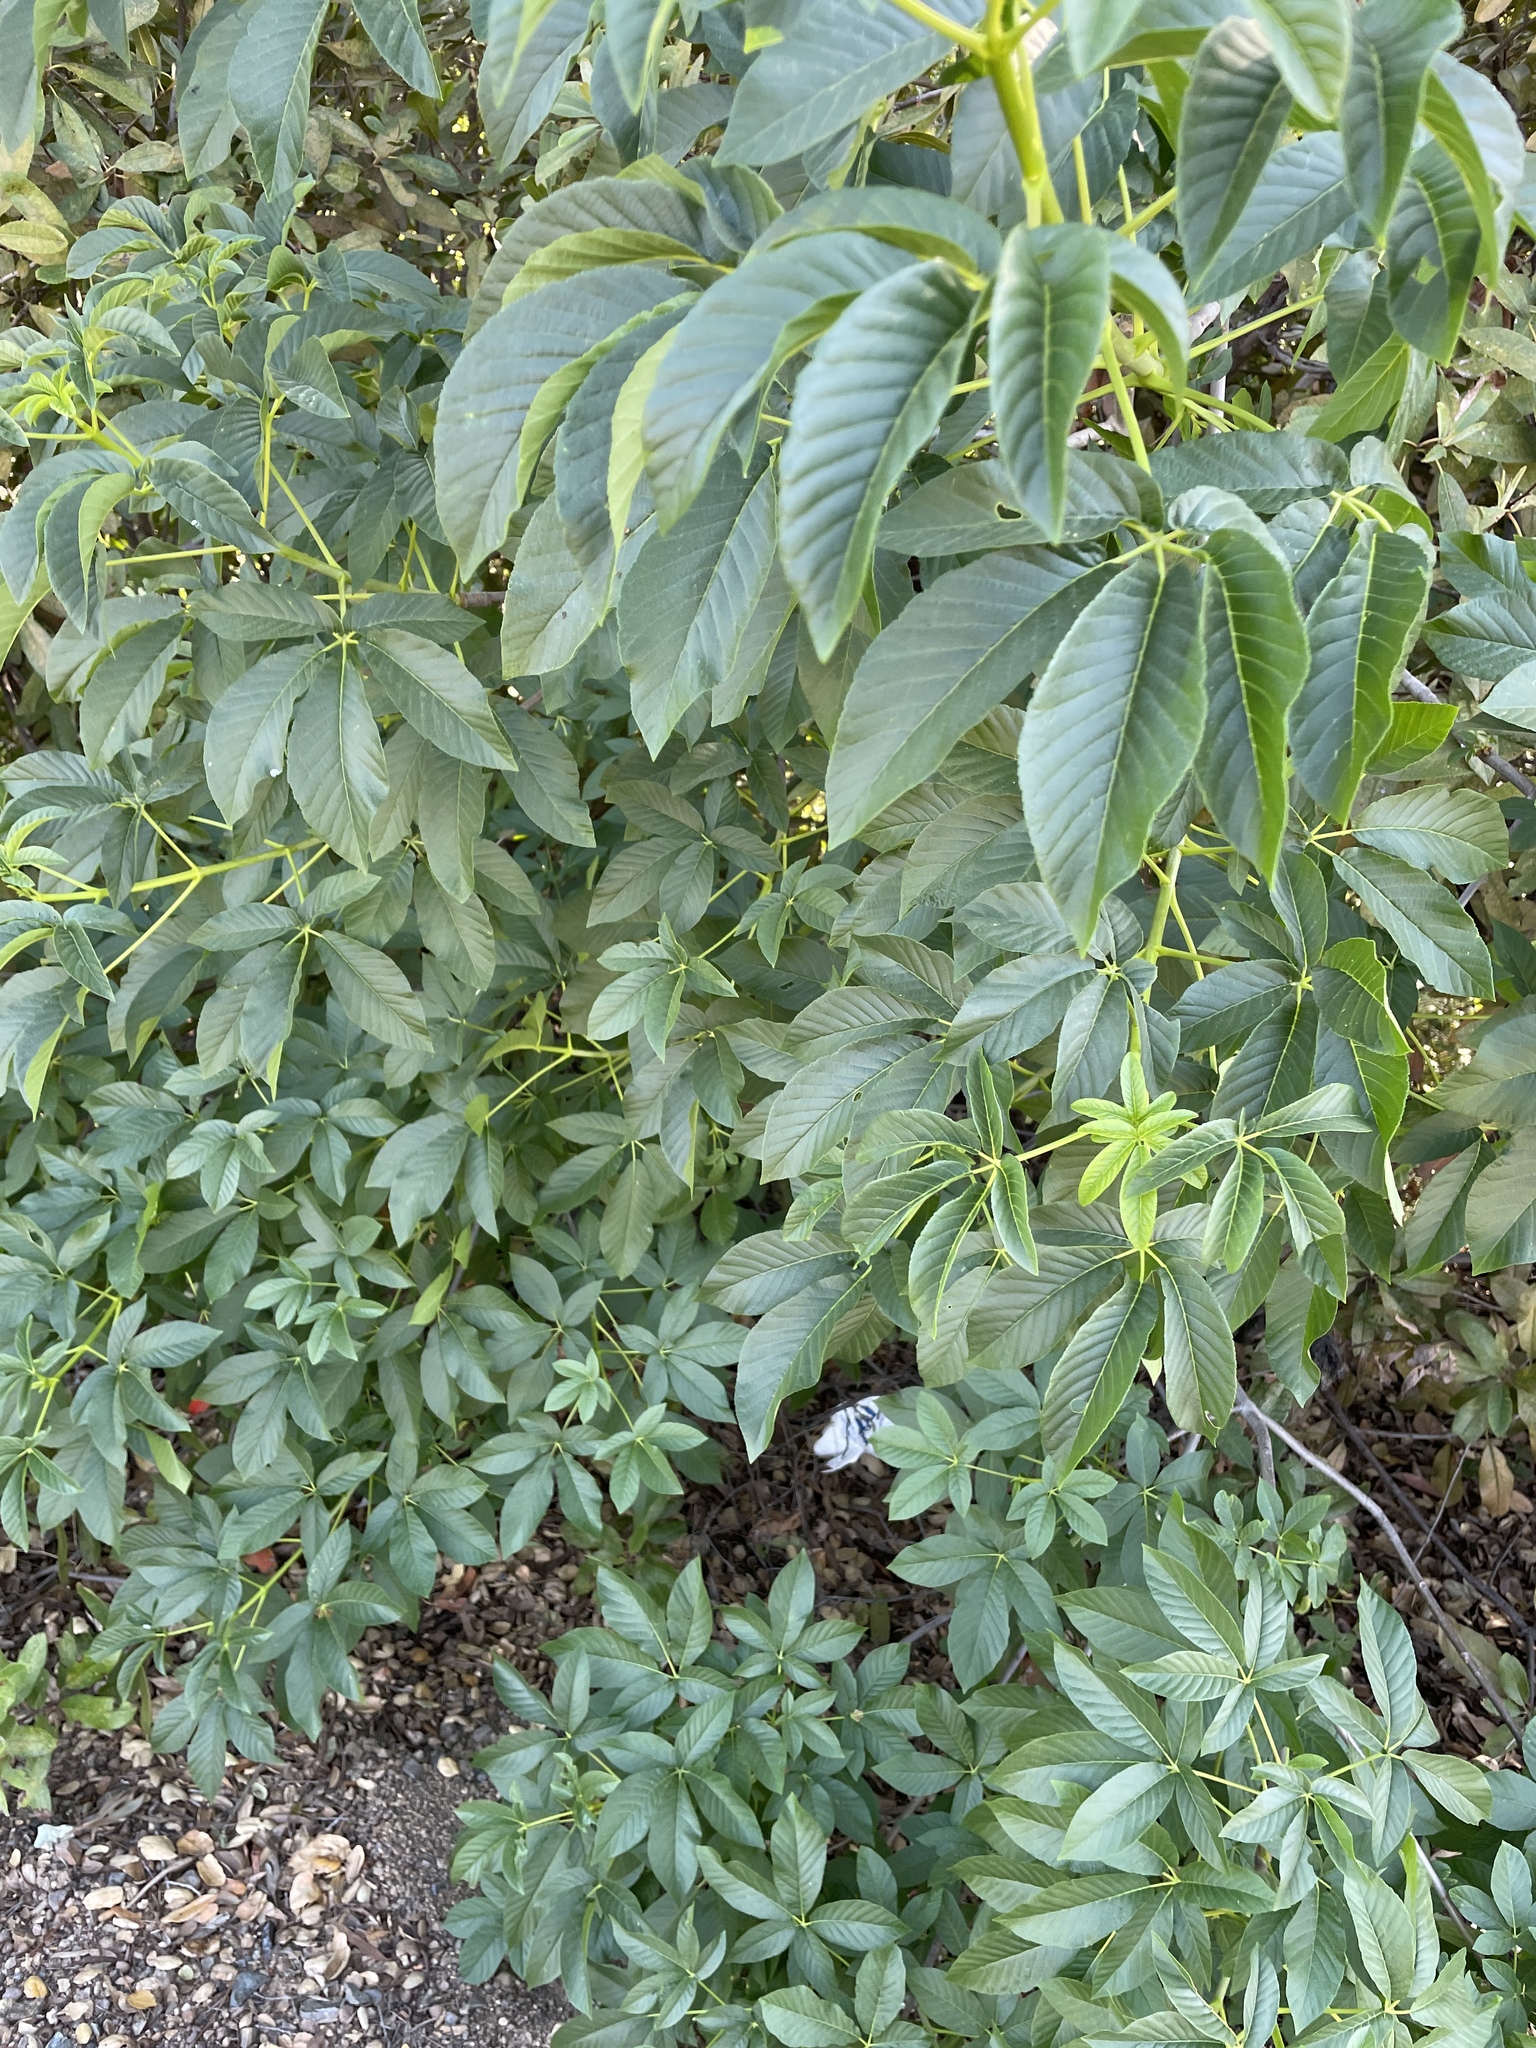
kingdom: Plantae
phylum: Tracheophyta
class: Magnoliopsida
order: Sapindales
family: Sapindaceae
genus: Aesculus
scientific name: Aesculus californica
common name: California buckeye
